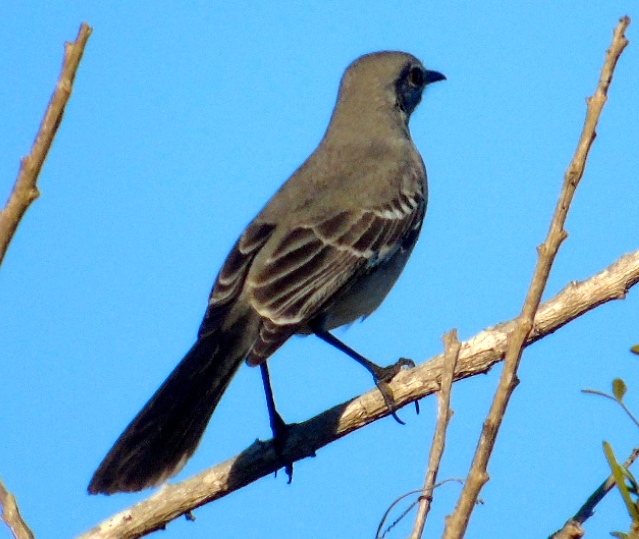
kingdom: Animalia
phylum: Chordata
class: Aves
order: Passeriformes
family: Mimidae
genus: Mimus
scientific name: Mimus polyglottos
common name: Northern mockingbird
